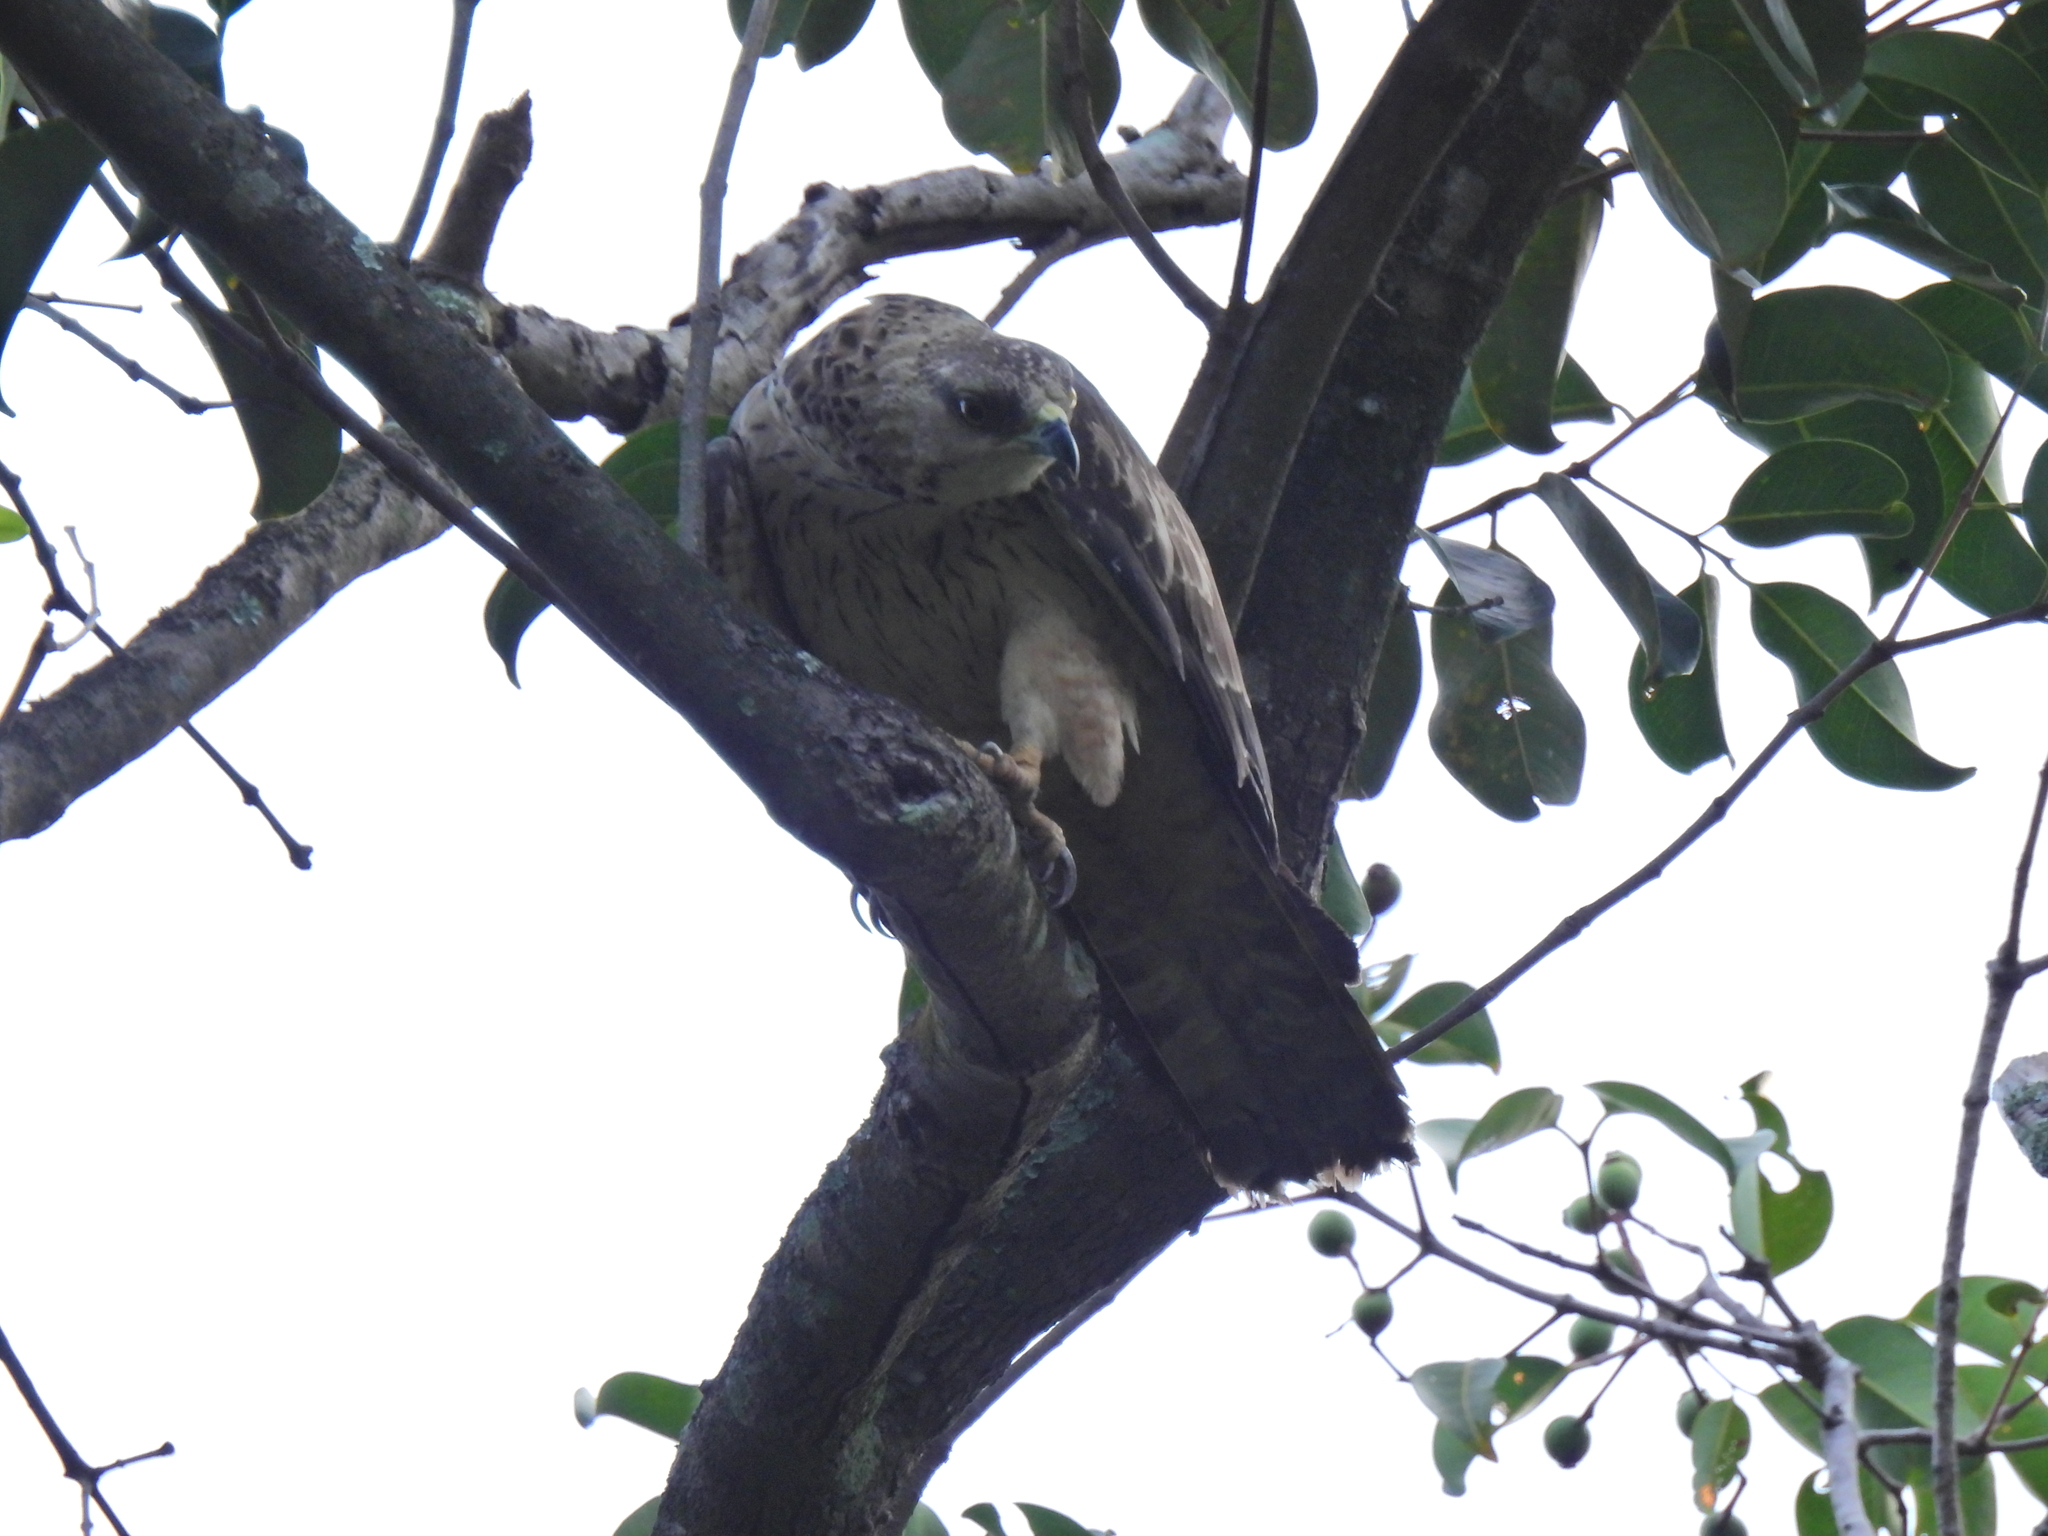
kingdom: Animalia
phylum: Chordata
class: Aves
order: Accipitriformes
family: Accipitridae
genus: Pernis
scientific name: Pernis ptilorhynchus
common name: Crested honey buzzard
